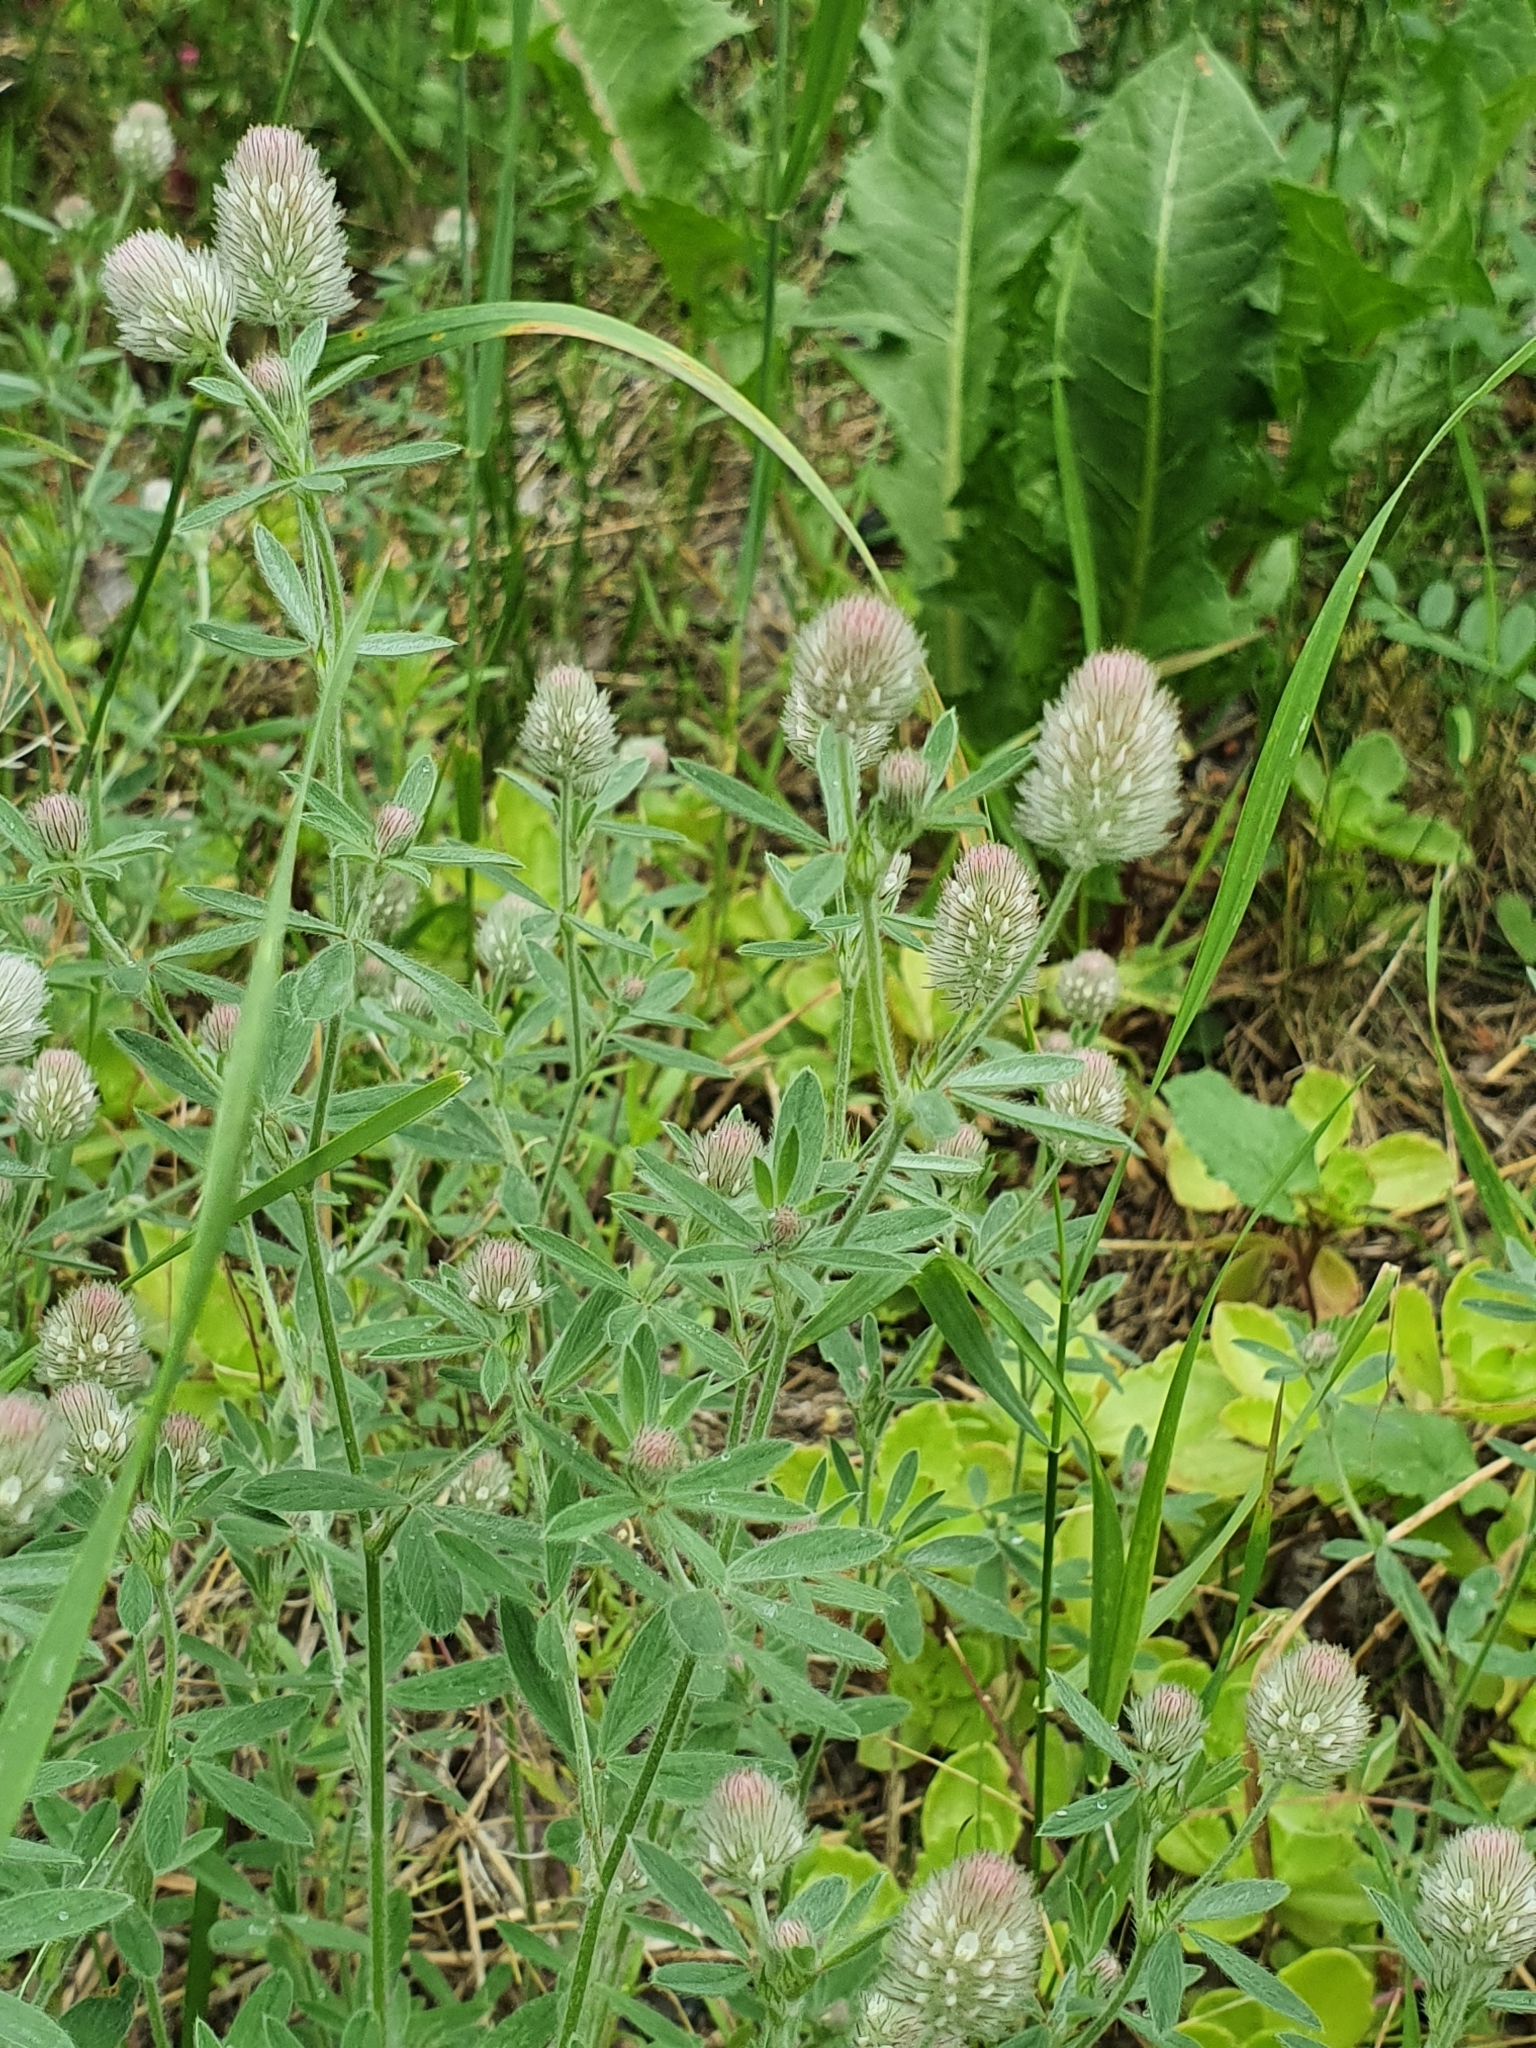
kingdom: Plantae
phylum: Tracheophyta
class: Magnoliopsida
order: Fabales
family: Fabaceae
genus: Trifolium
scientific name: Trifolium arvense
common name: Hare's-foot clover
